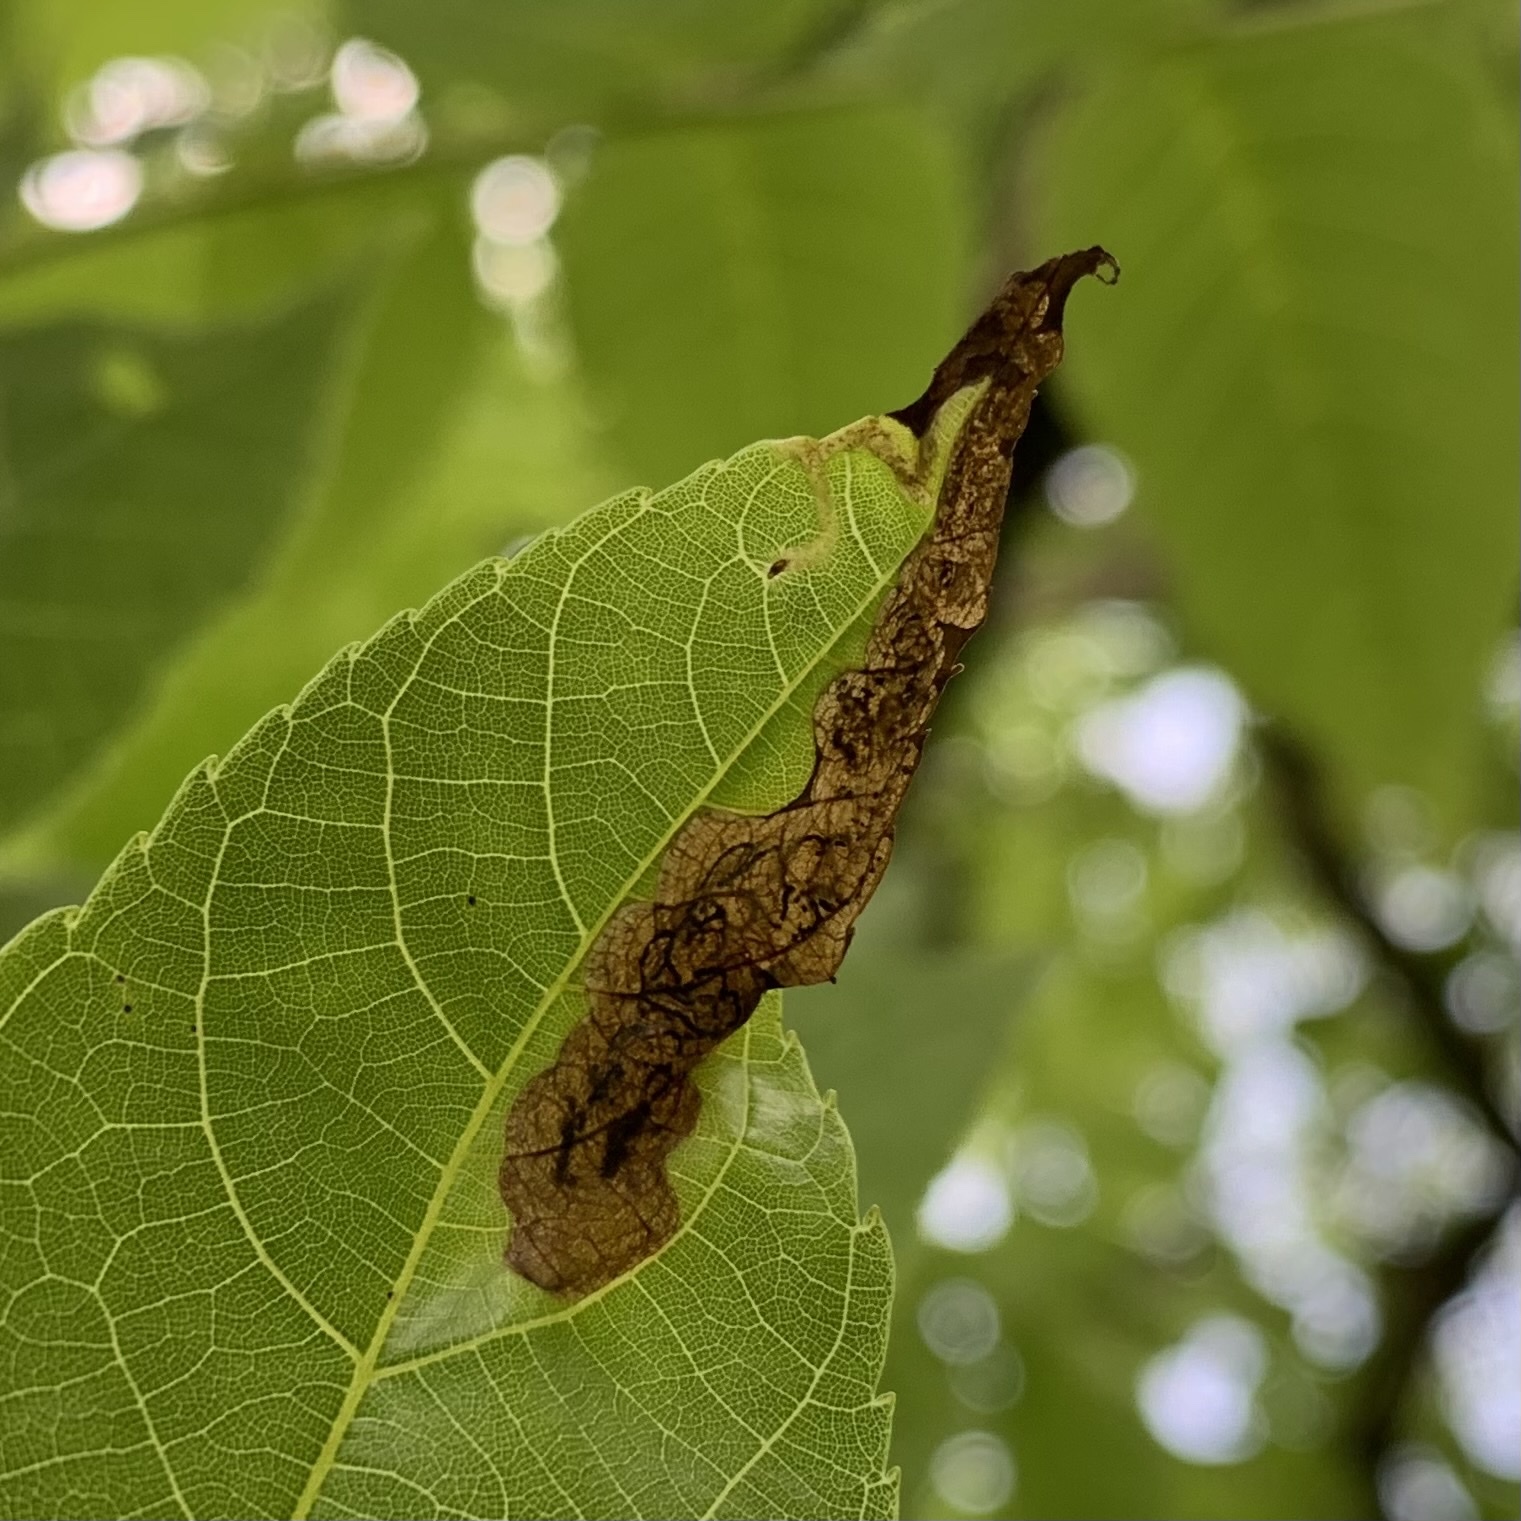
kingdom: Animalia
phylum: Arthropoda
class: Insecta
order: Diptera
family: Agromyzidae
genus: Japanagromyza
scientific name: Japanagromyza viridula
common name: Oak shothole leafminer
